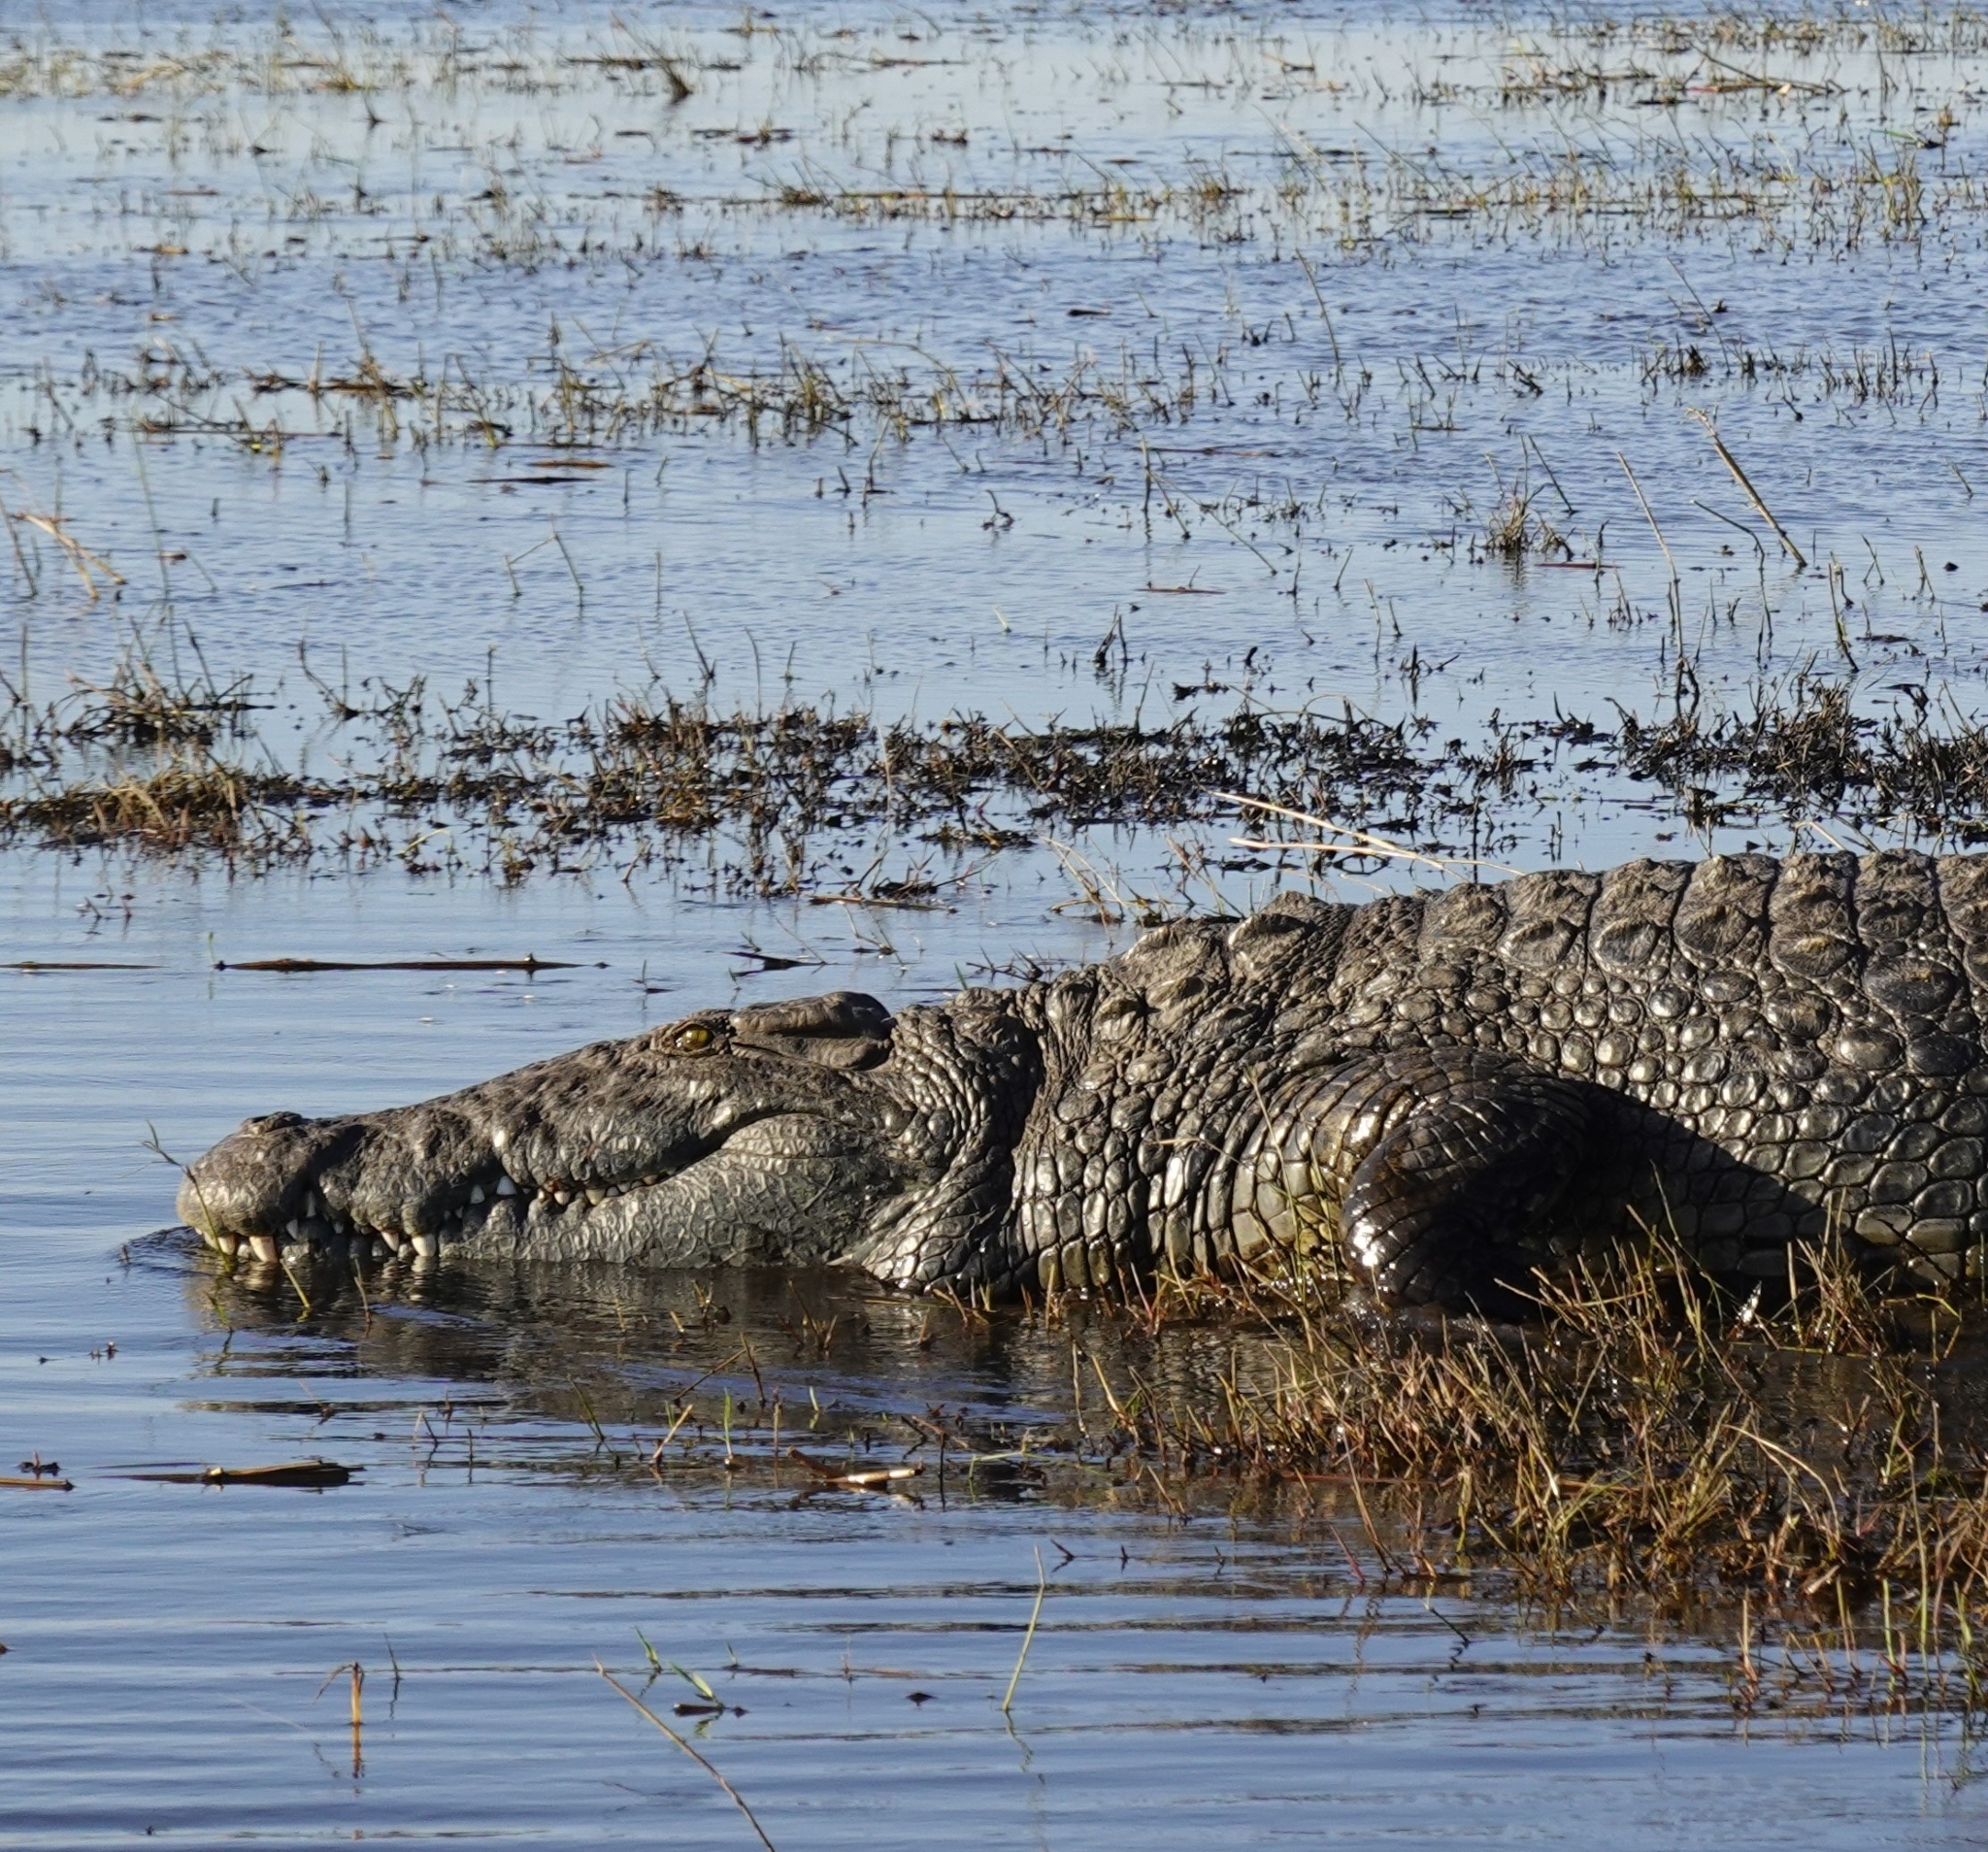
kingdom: Animalia
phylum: Chordata
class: Crocodylia
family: Crocodylidae
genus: Crocodylus
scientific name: Crocodylus niloticus
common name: Nile crocodile
